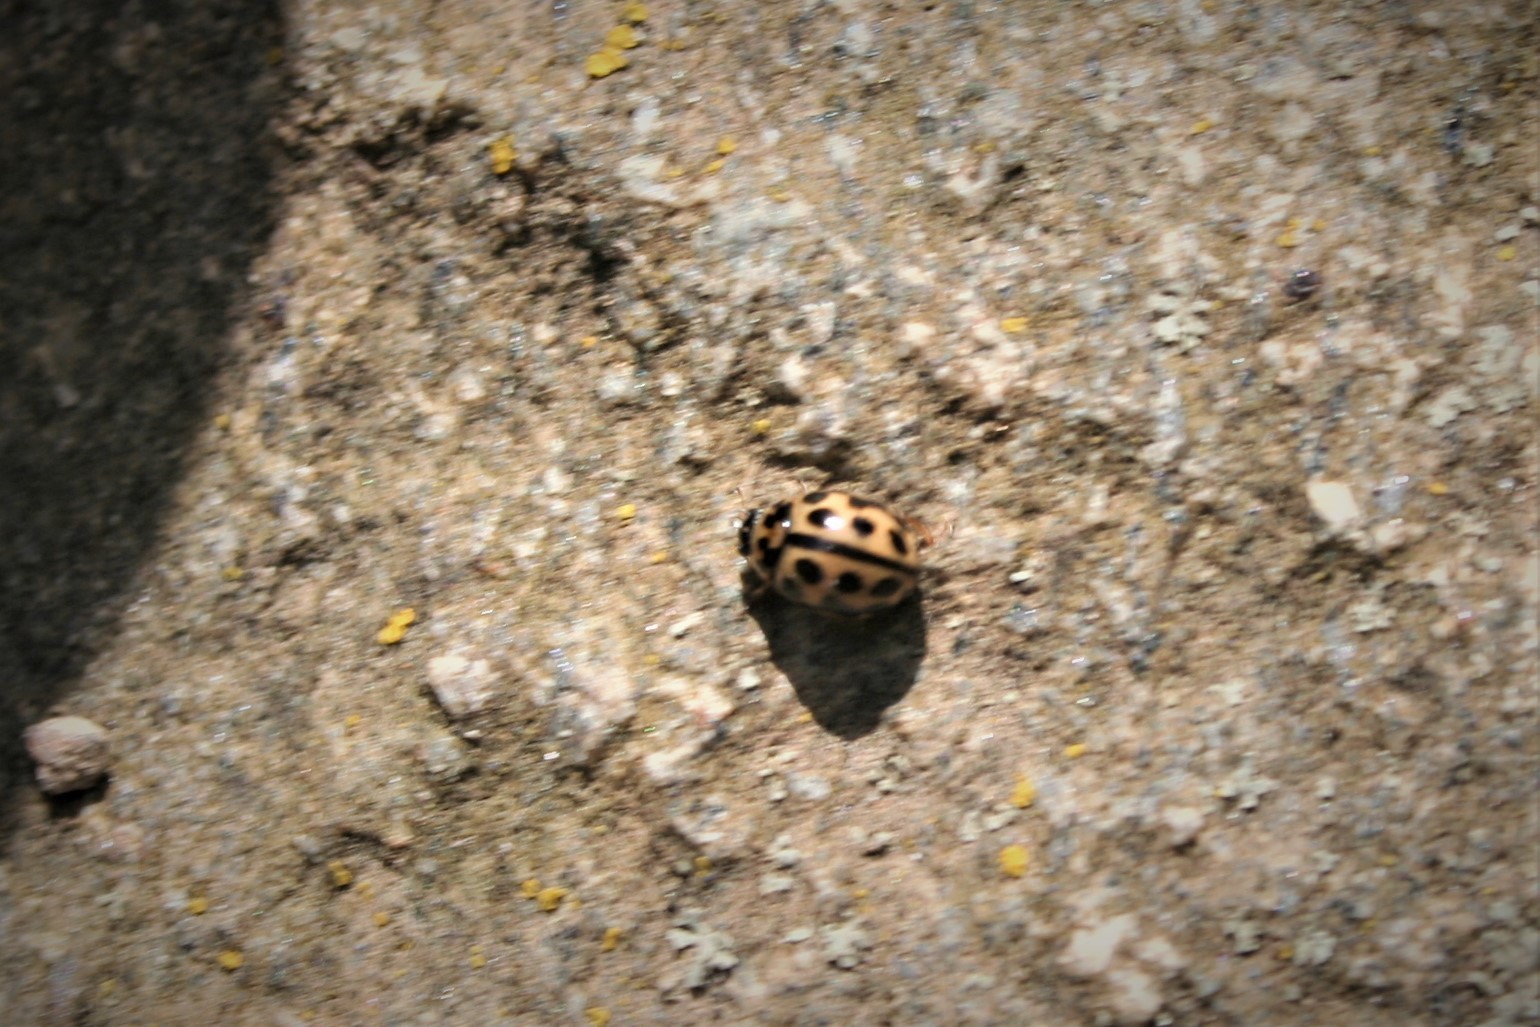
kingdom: Animalia
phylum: Arthropoda
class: Insecta
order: Coleoptera
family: Coccinellidae
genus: Tytthaspis
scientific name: Tytthaspis sedecimpunctata
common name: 16-spot ladybird
